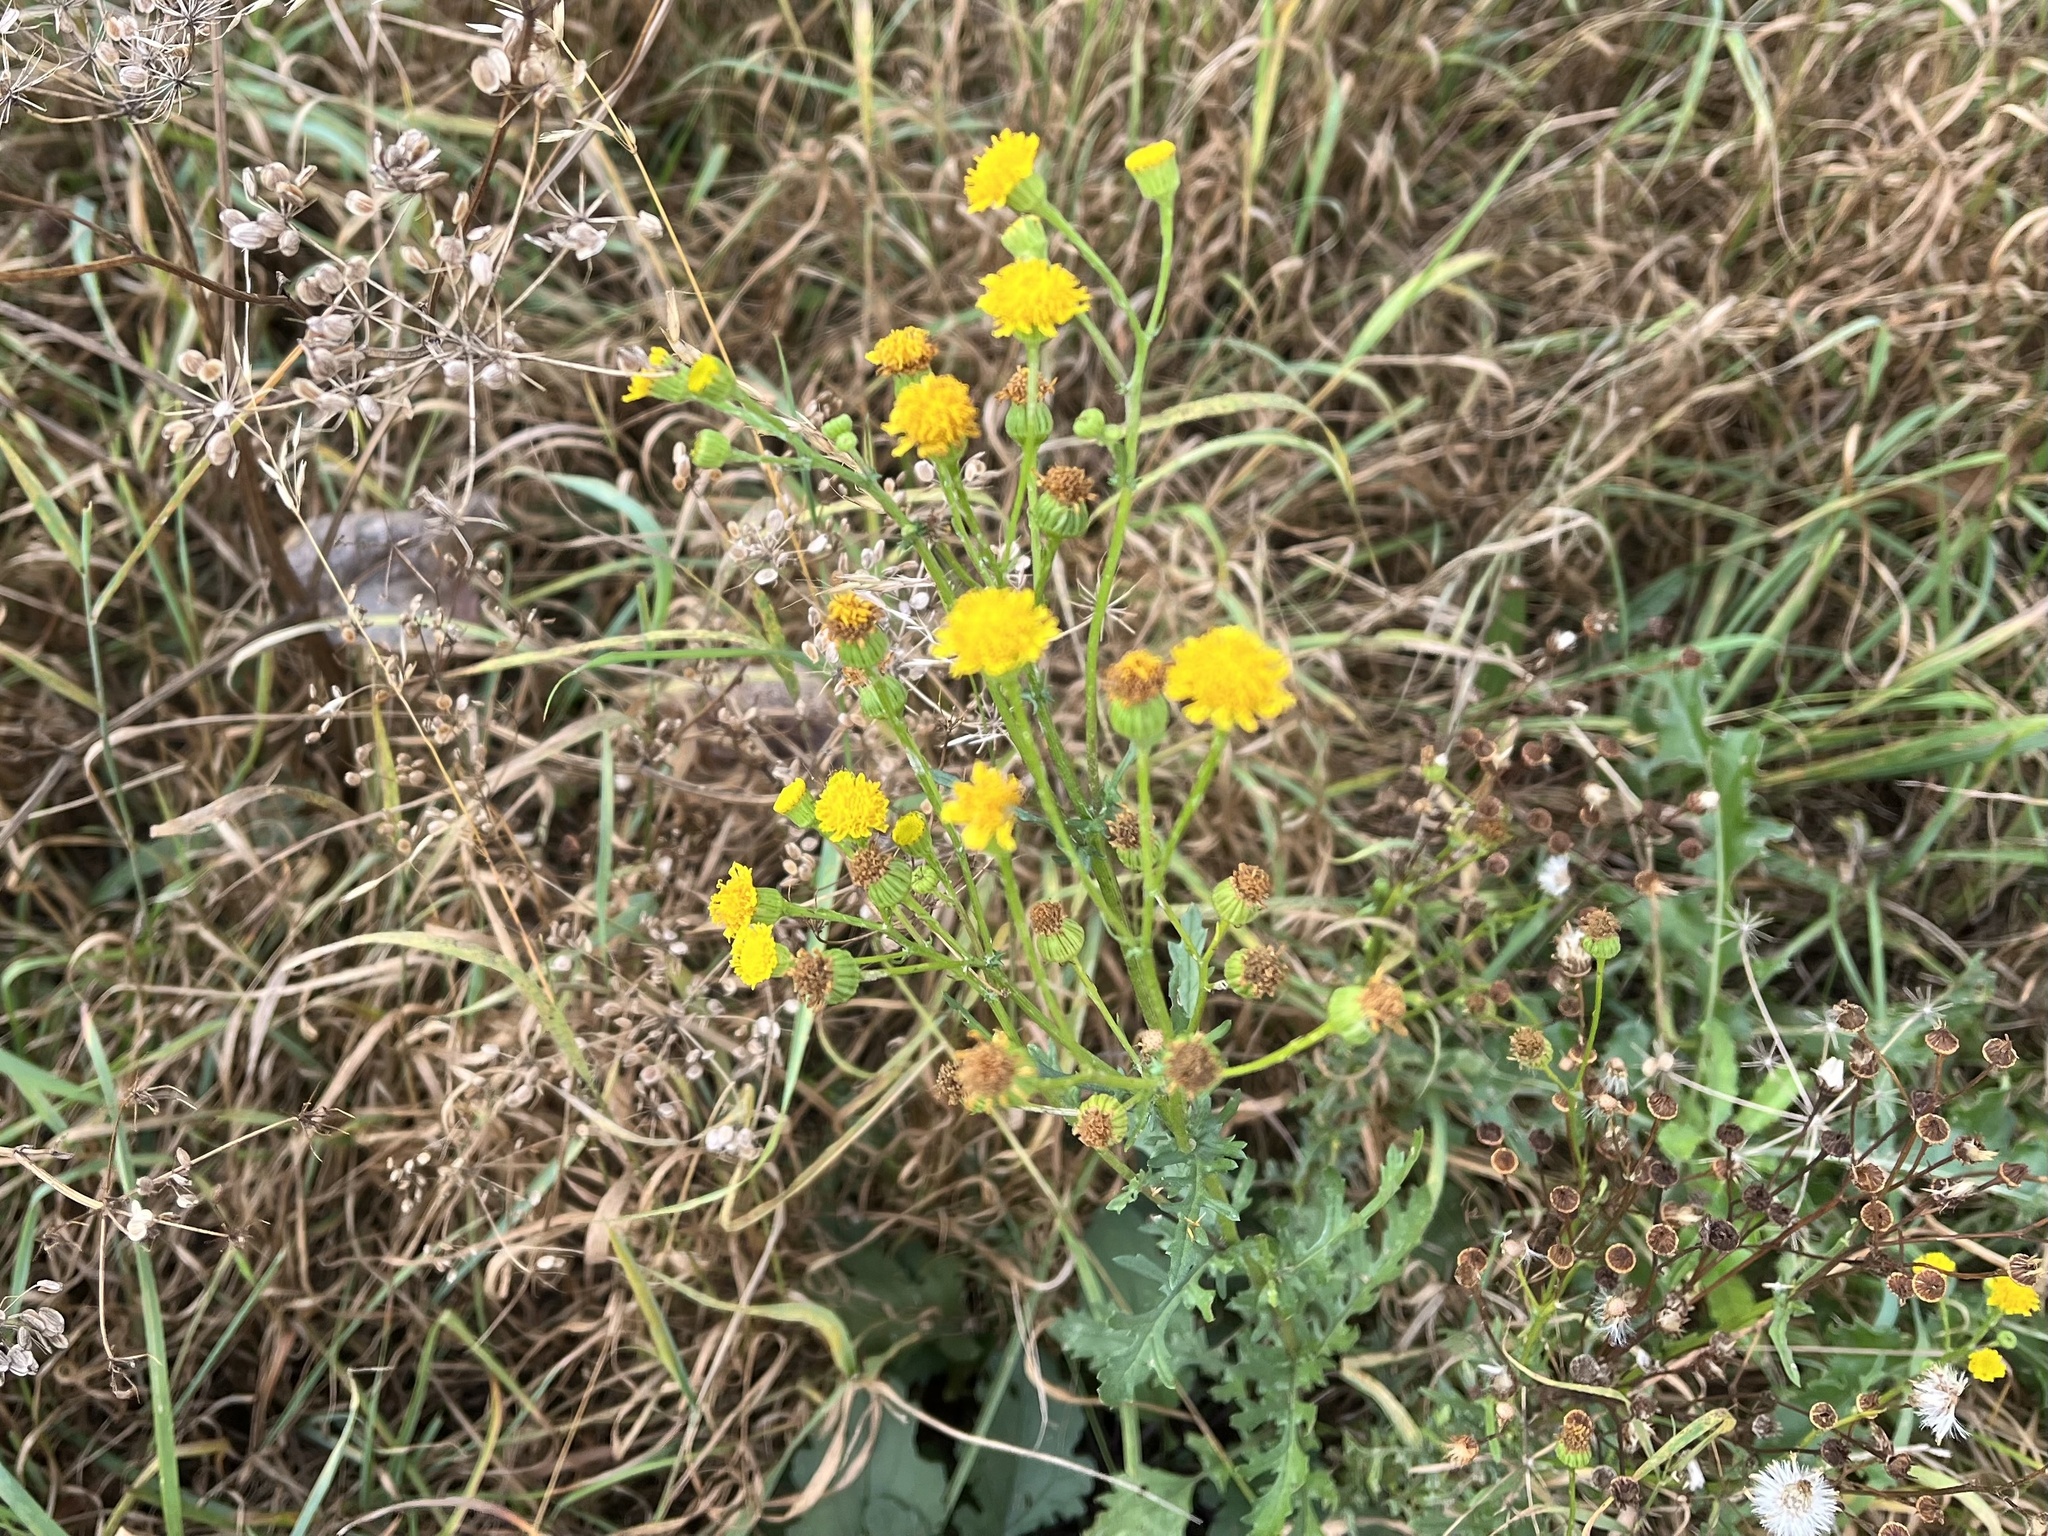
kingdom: Plantae
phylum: Tracheophyta
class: Magnoliopsida
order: Asterales
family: Asteraceae
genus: Jacobaea
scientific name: Jacobaea vulgaris
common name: Stinking willie
